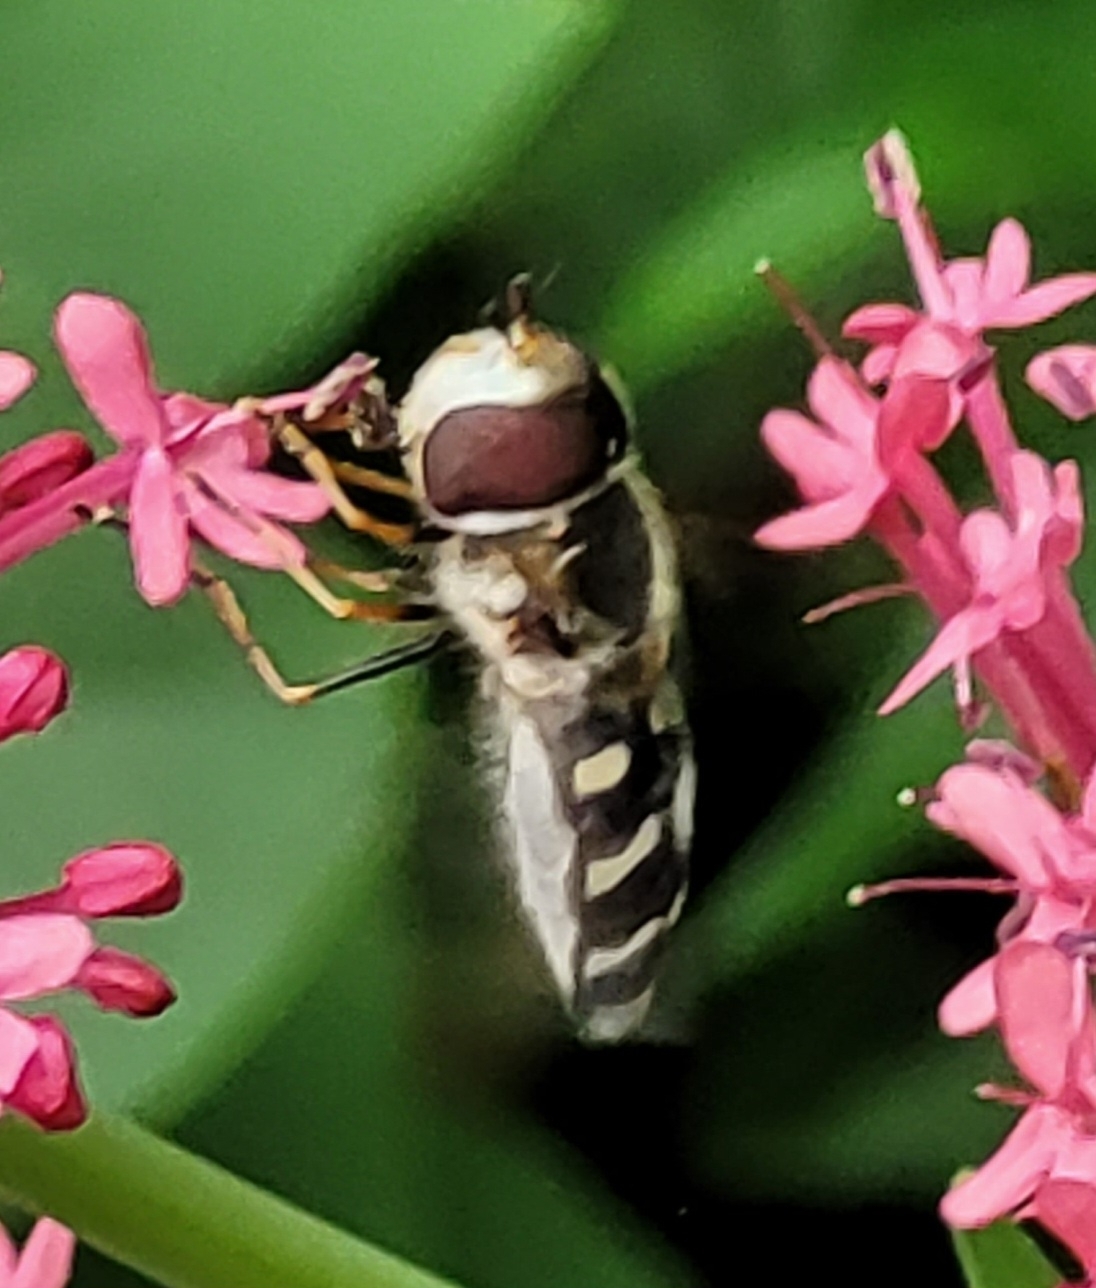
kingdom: Animalia
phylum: Arthropoda
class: Insecta
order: Diptera
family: Syrphidae
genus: Scaeva
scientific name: Scaeva pyrastri
